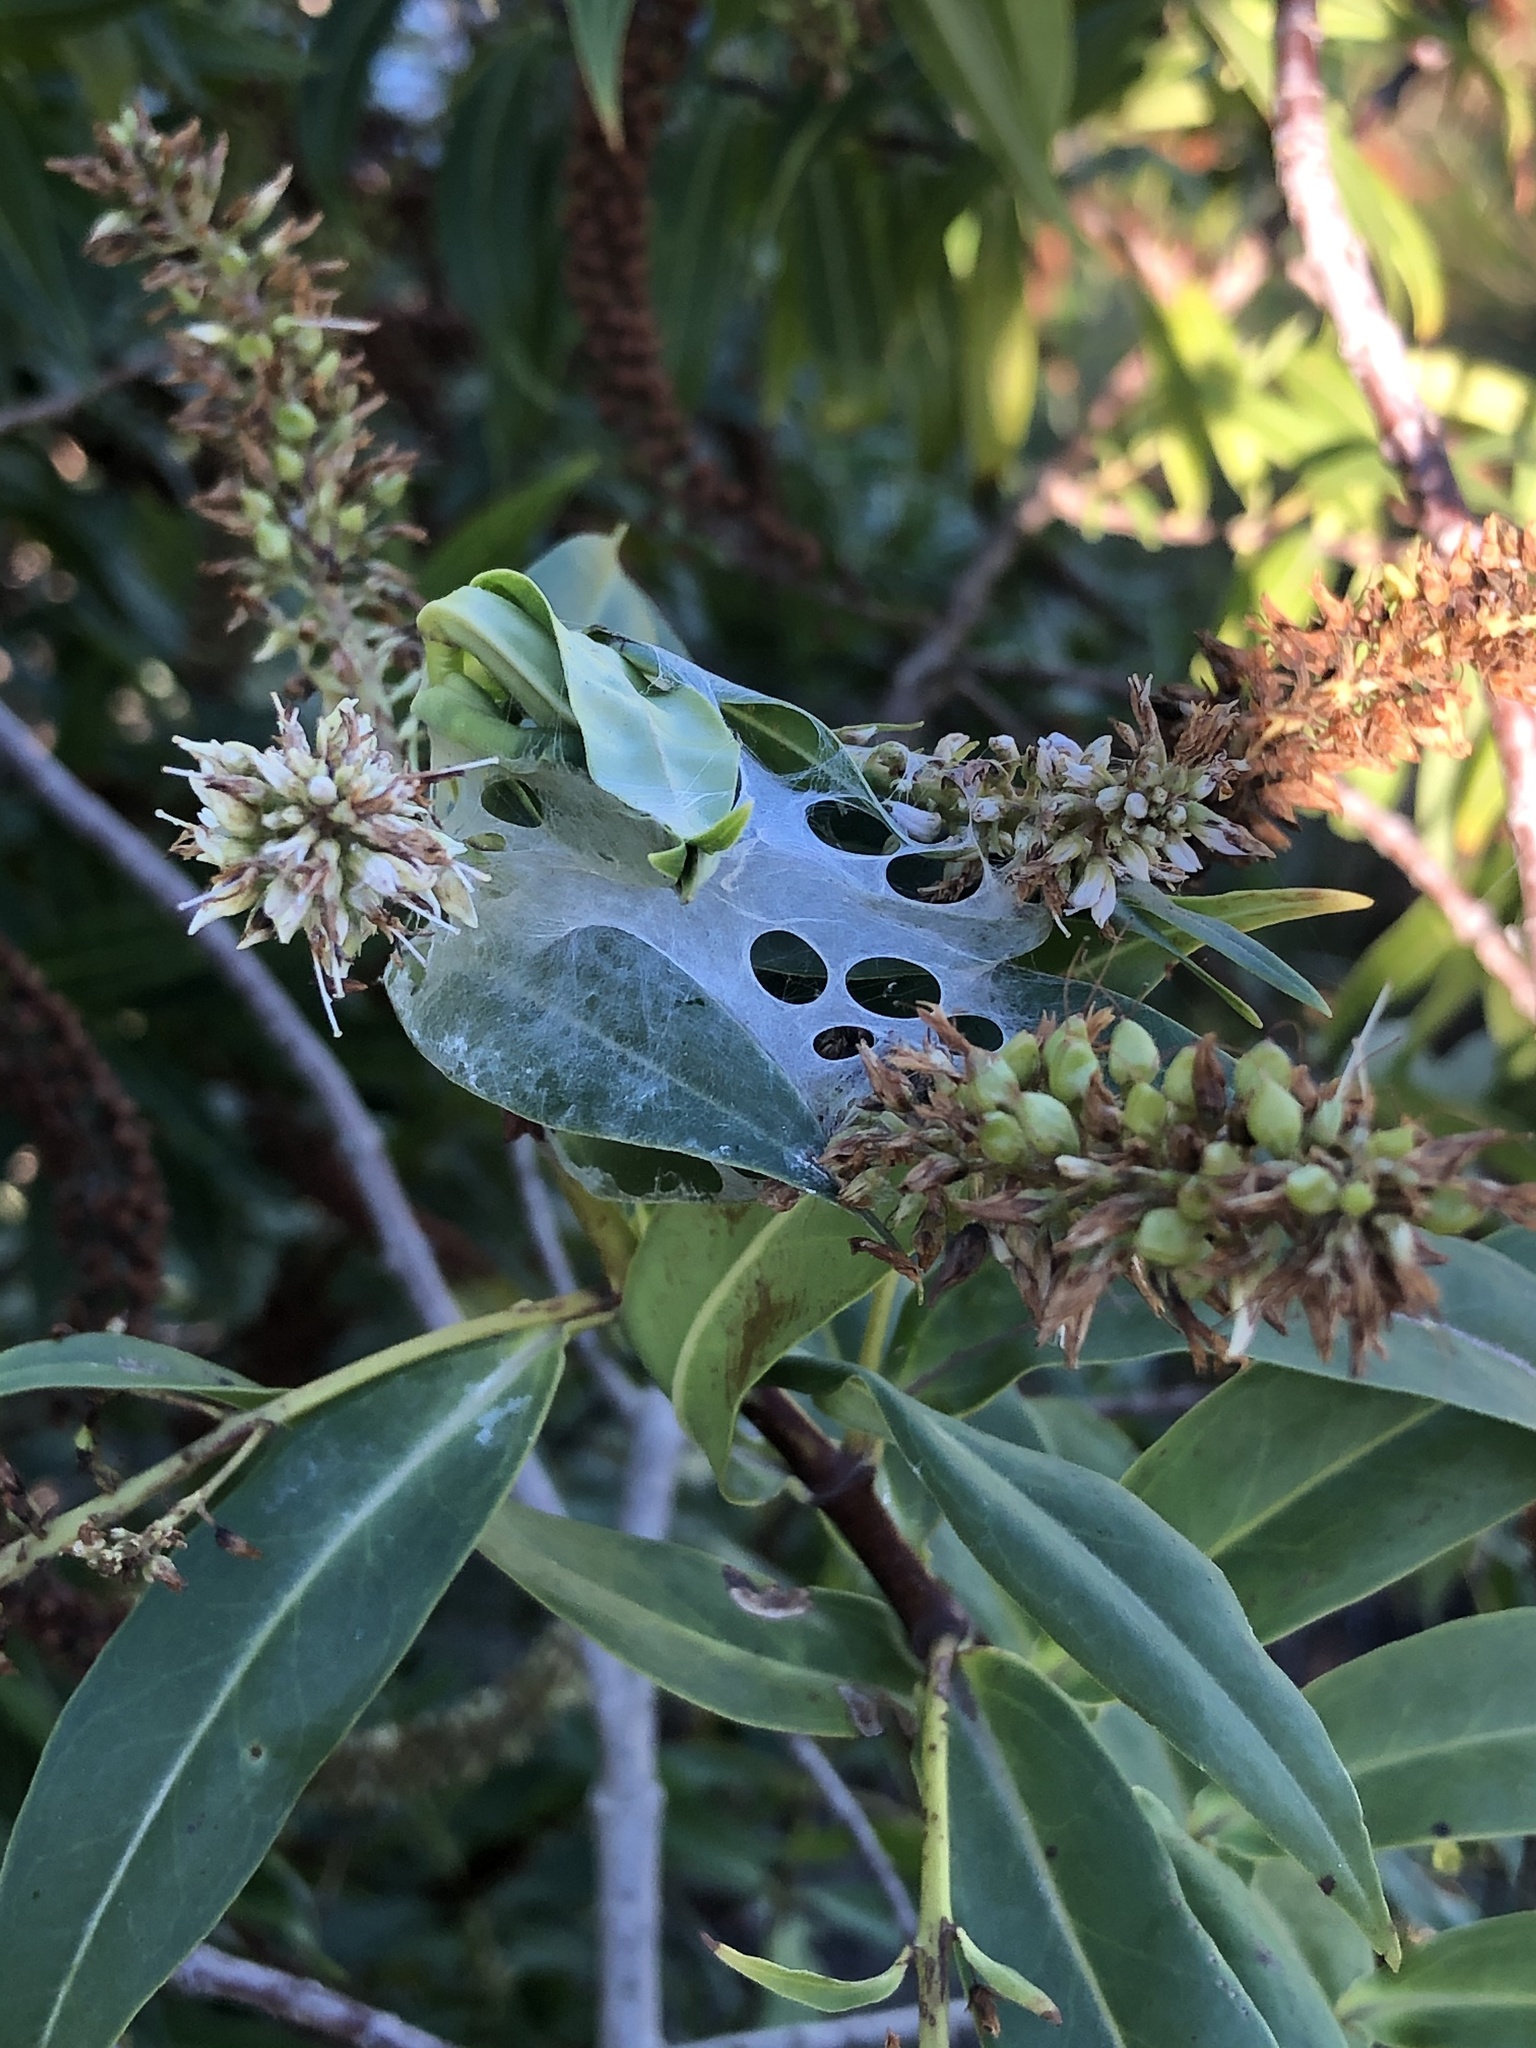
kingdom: Animalia
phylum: Arthropoda
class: Arachnida
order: Araneae
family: Pisauridae
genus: Dolomedes
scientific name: Dolomedes minor
